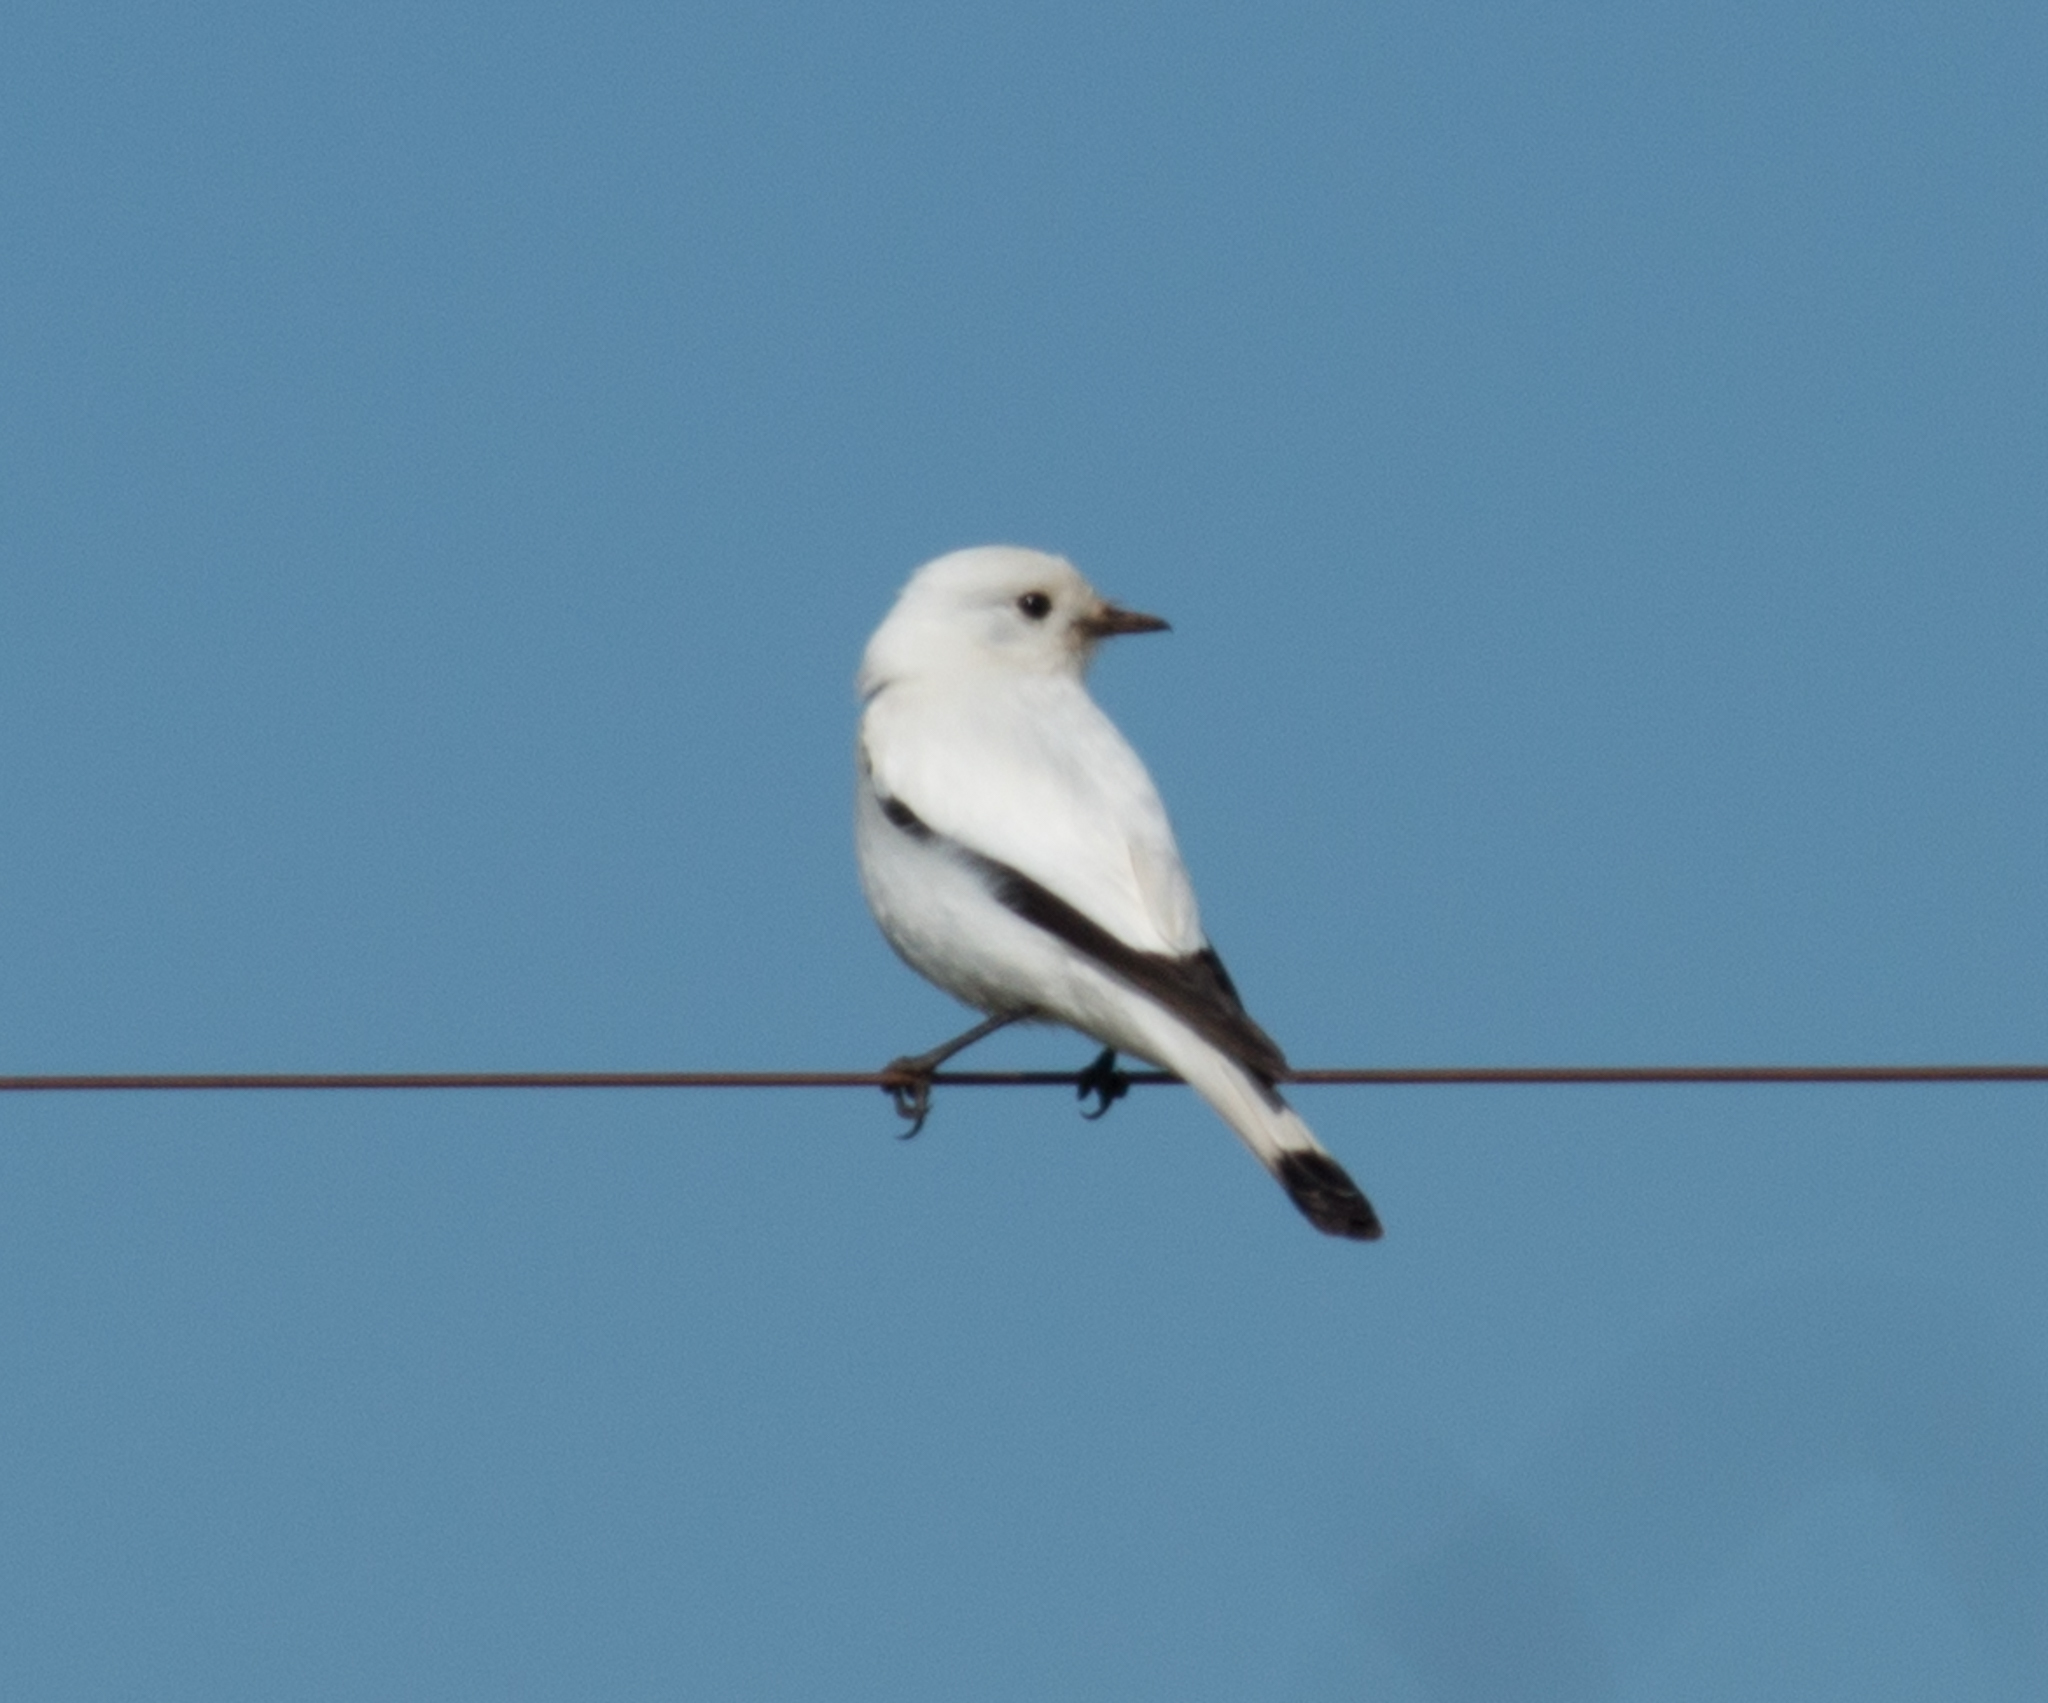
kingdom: Animalia
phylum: Chordata
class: Aves
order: Passeriformes
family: Tyrannidae
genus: Xolmis
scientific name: Xolmis irupero
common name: White monjita
